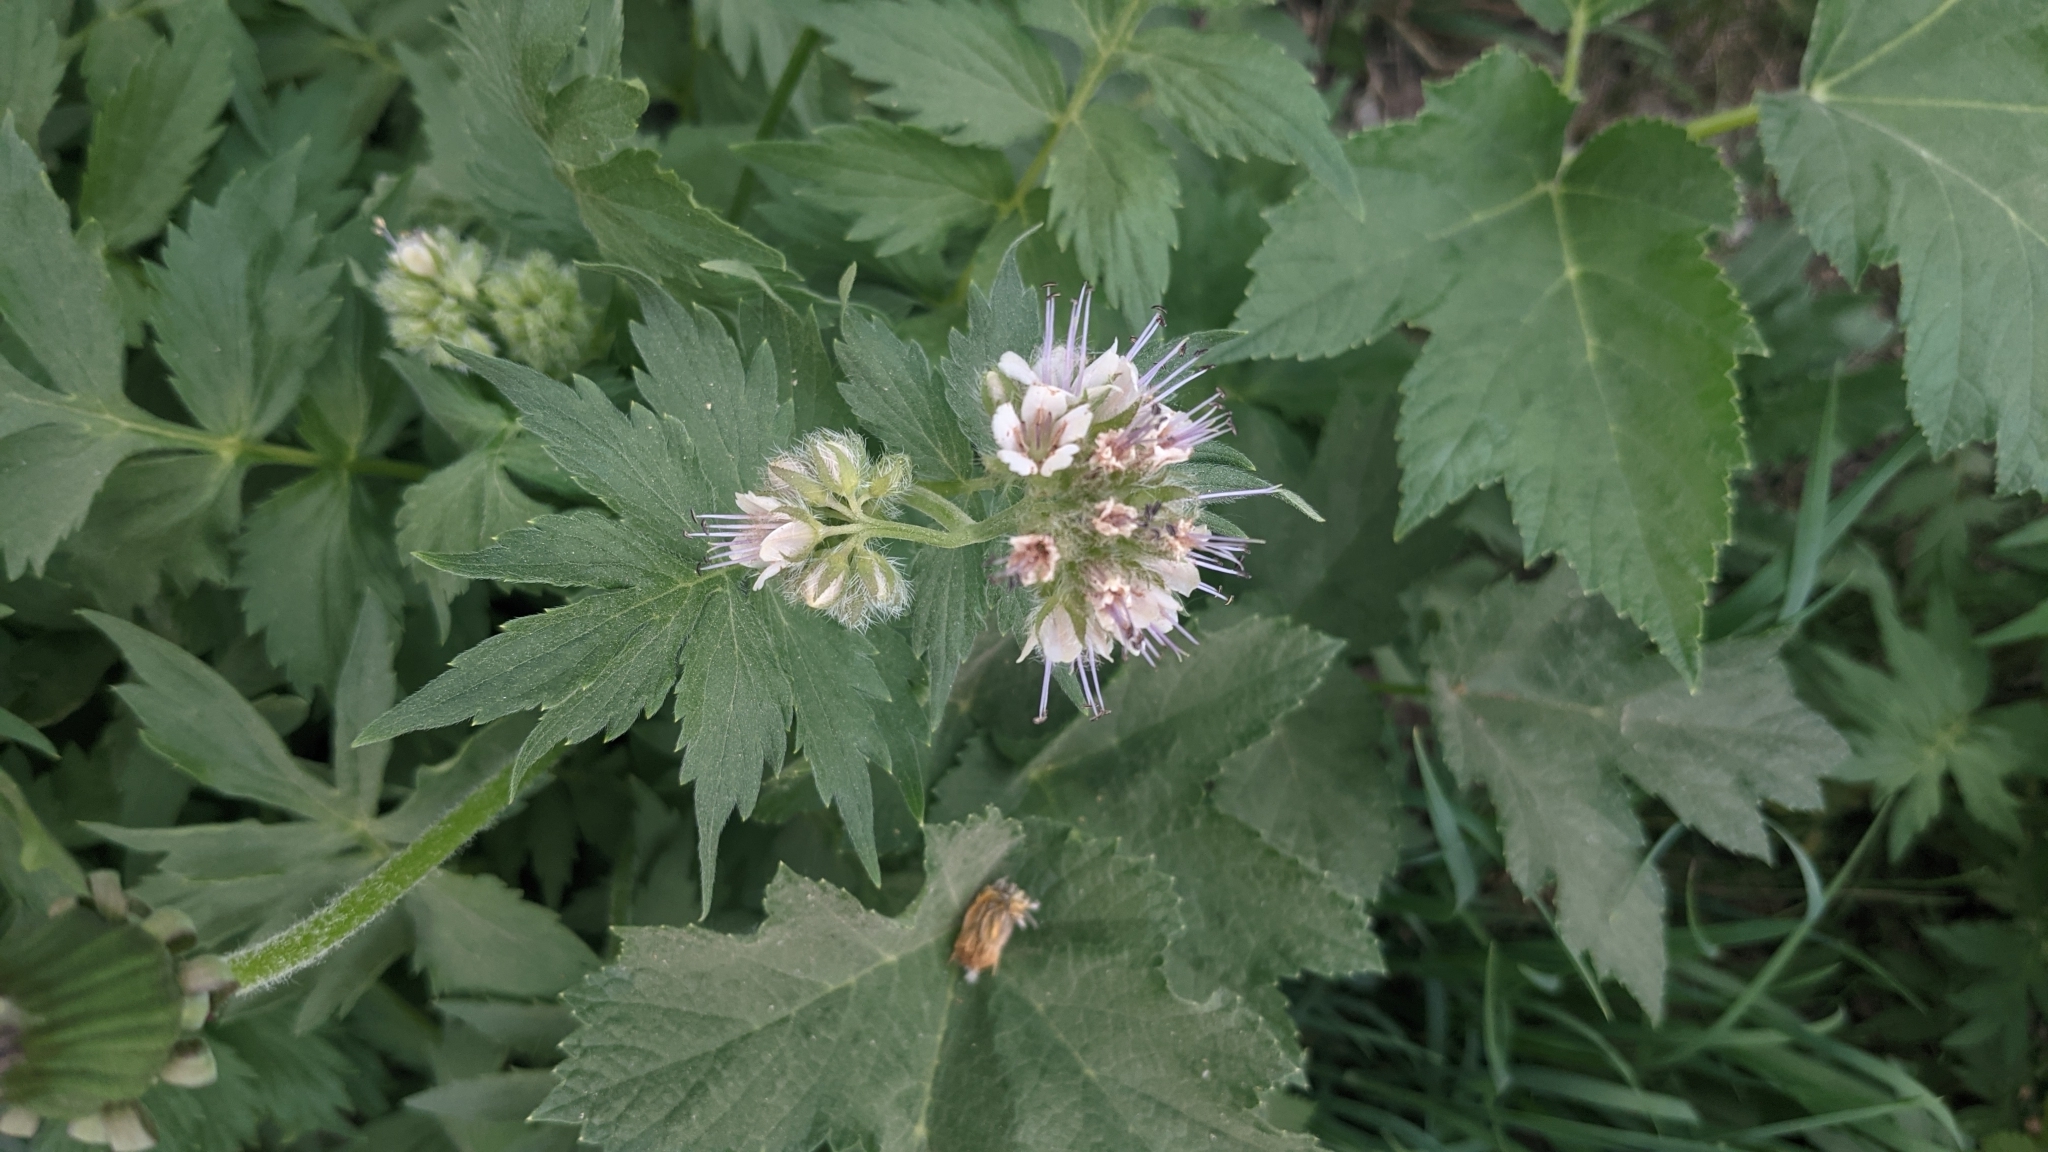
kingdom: Plantae
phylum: Tracheophyta
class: Magnoliopsida
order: Boraginales
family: Hydrophyllaceae
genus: Hydrophyllum
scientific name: Hydrophyllum fendleri
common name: Fendler's waterleaf
